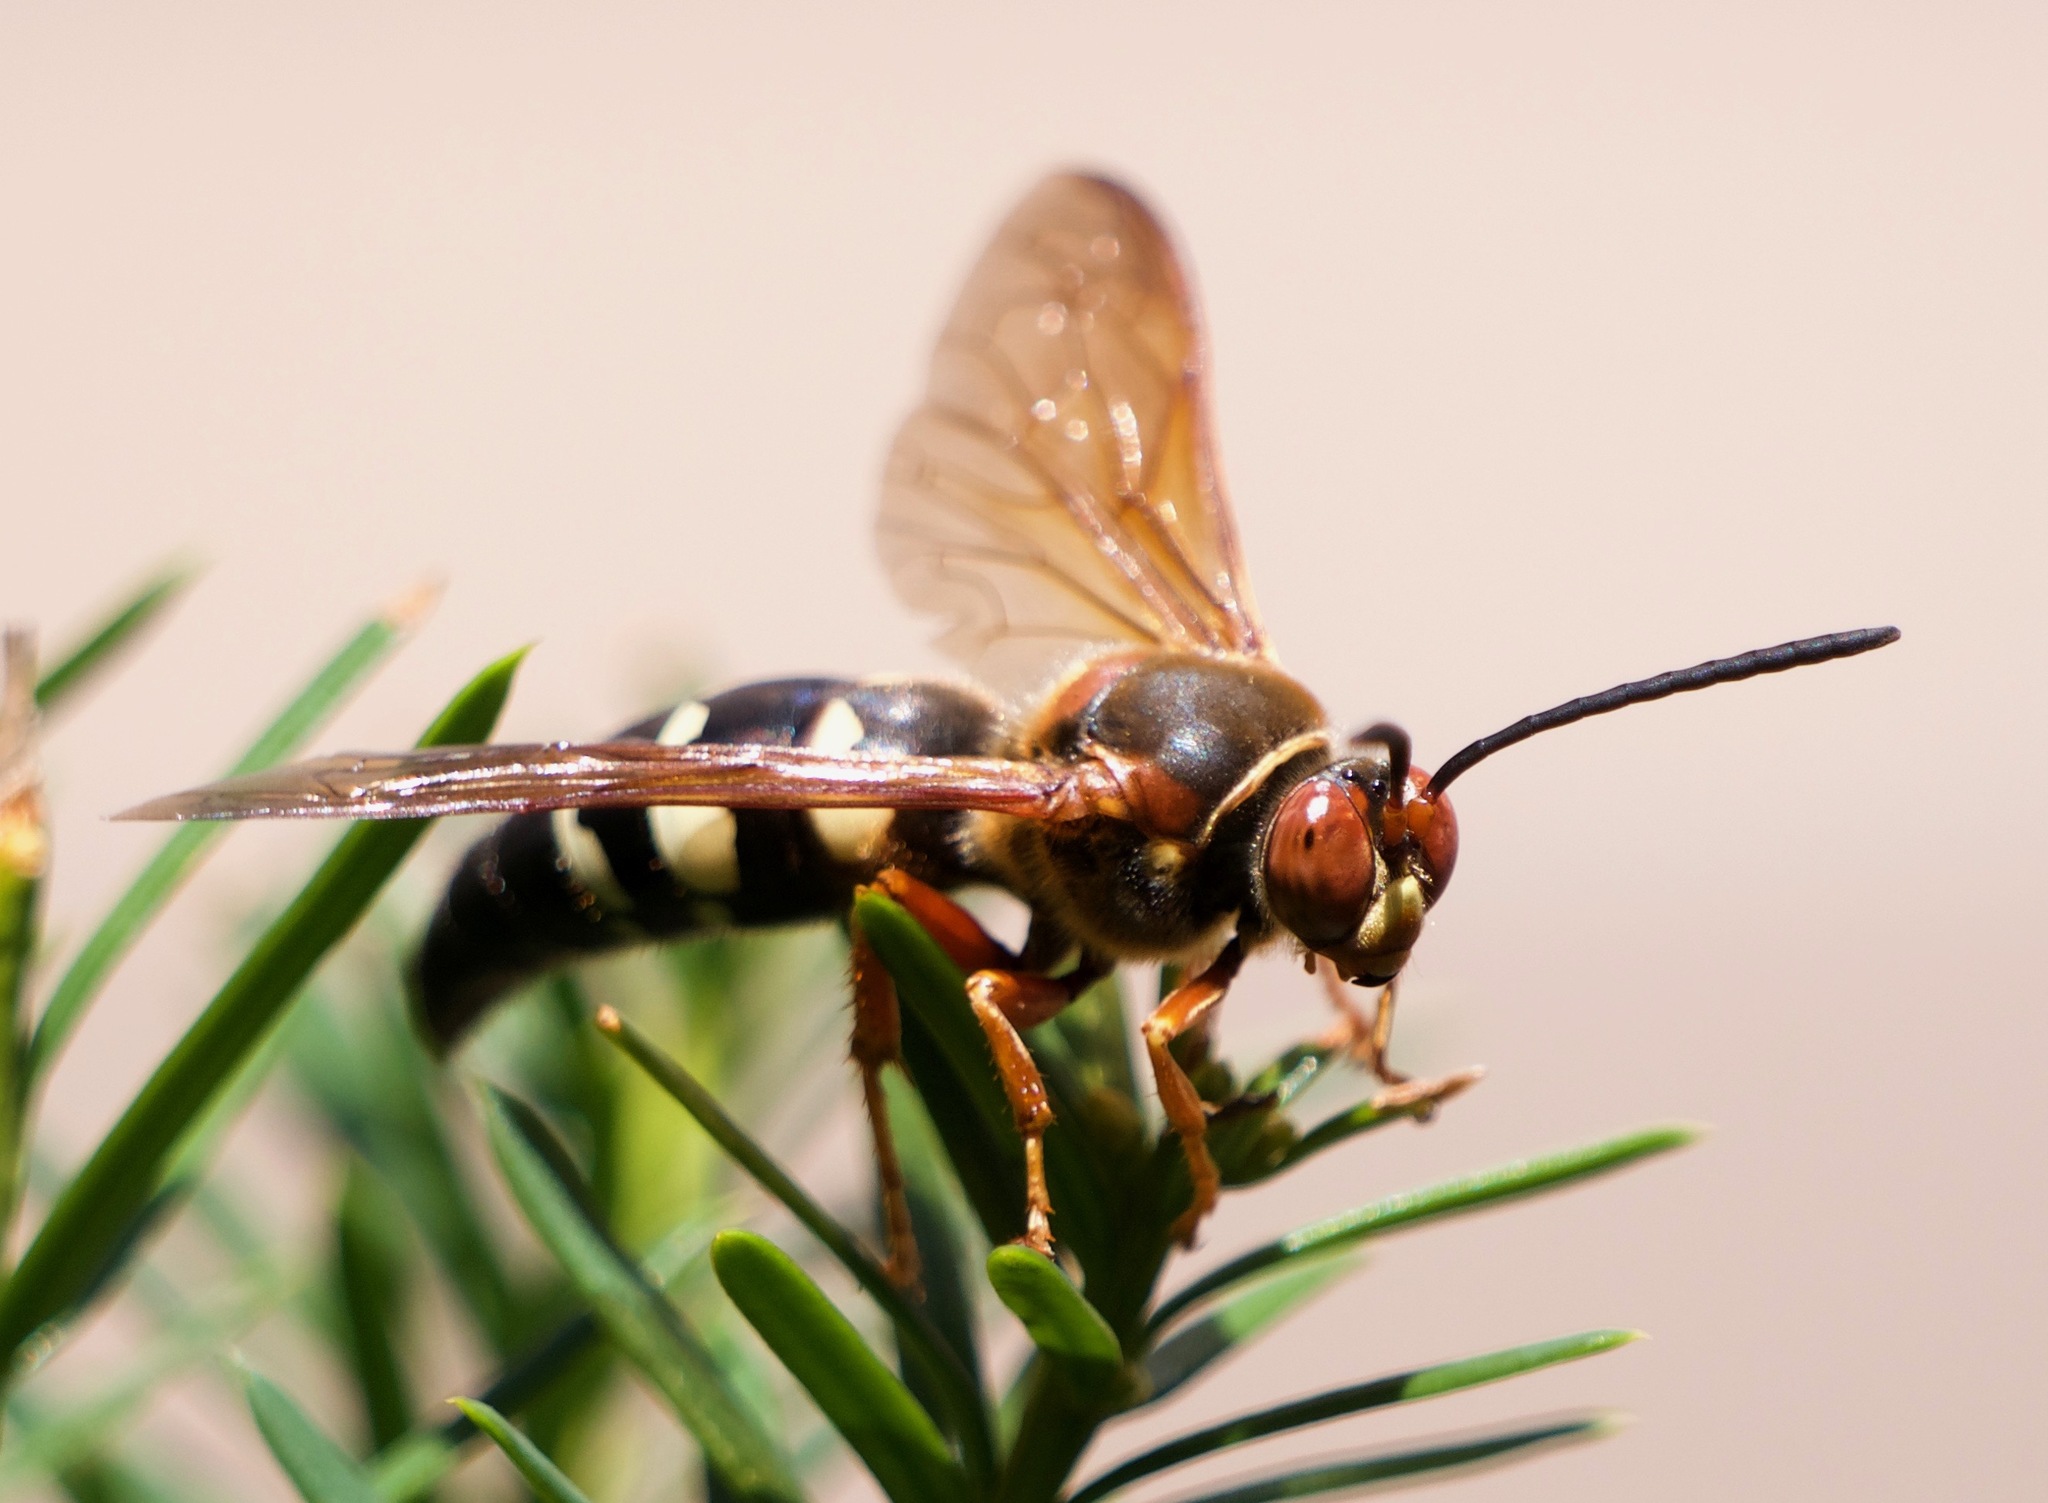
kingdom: Animalia
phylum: Arthropoda
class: Insecta
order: Hymenoptera
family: Crabronidae
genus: Sphecius
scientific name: Sphecius speciosus
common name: Cicada killer
